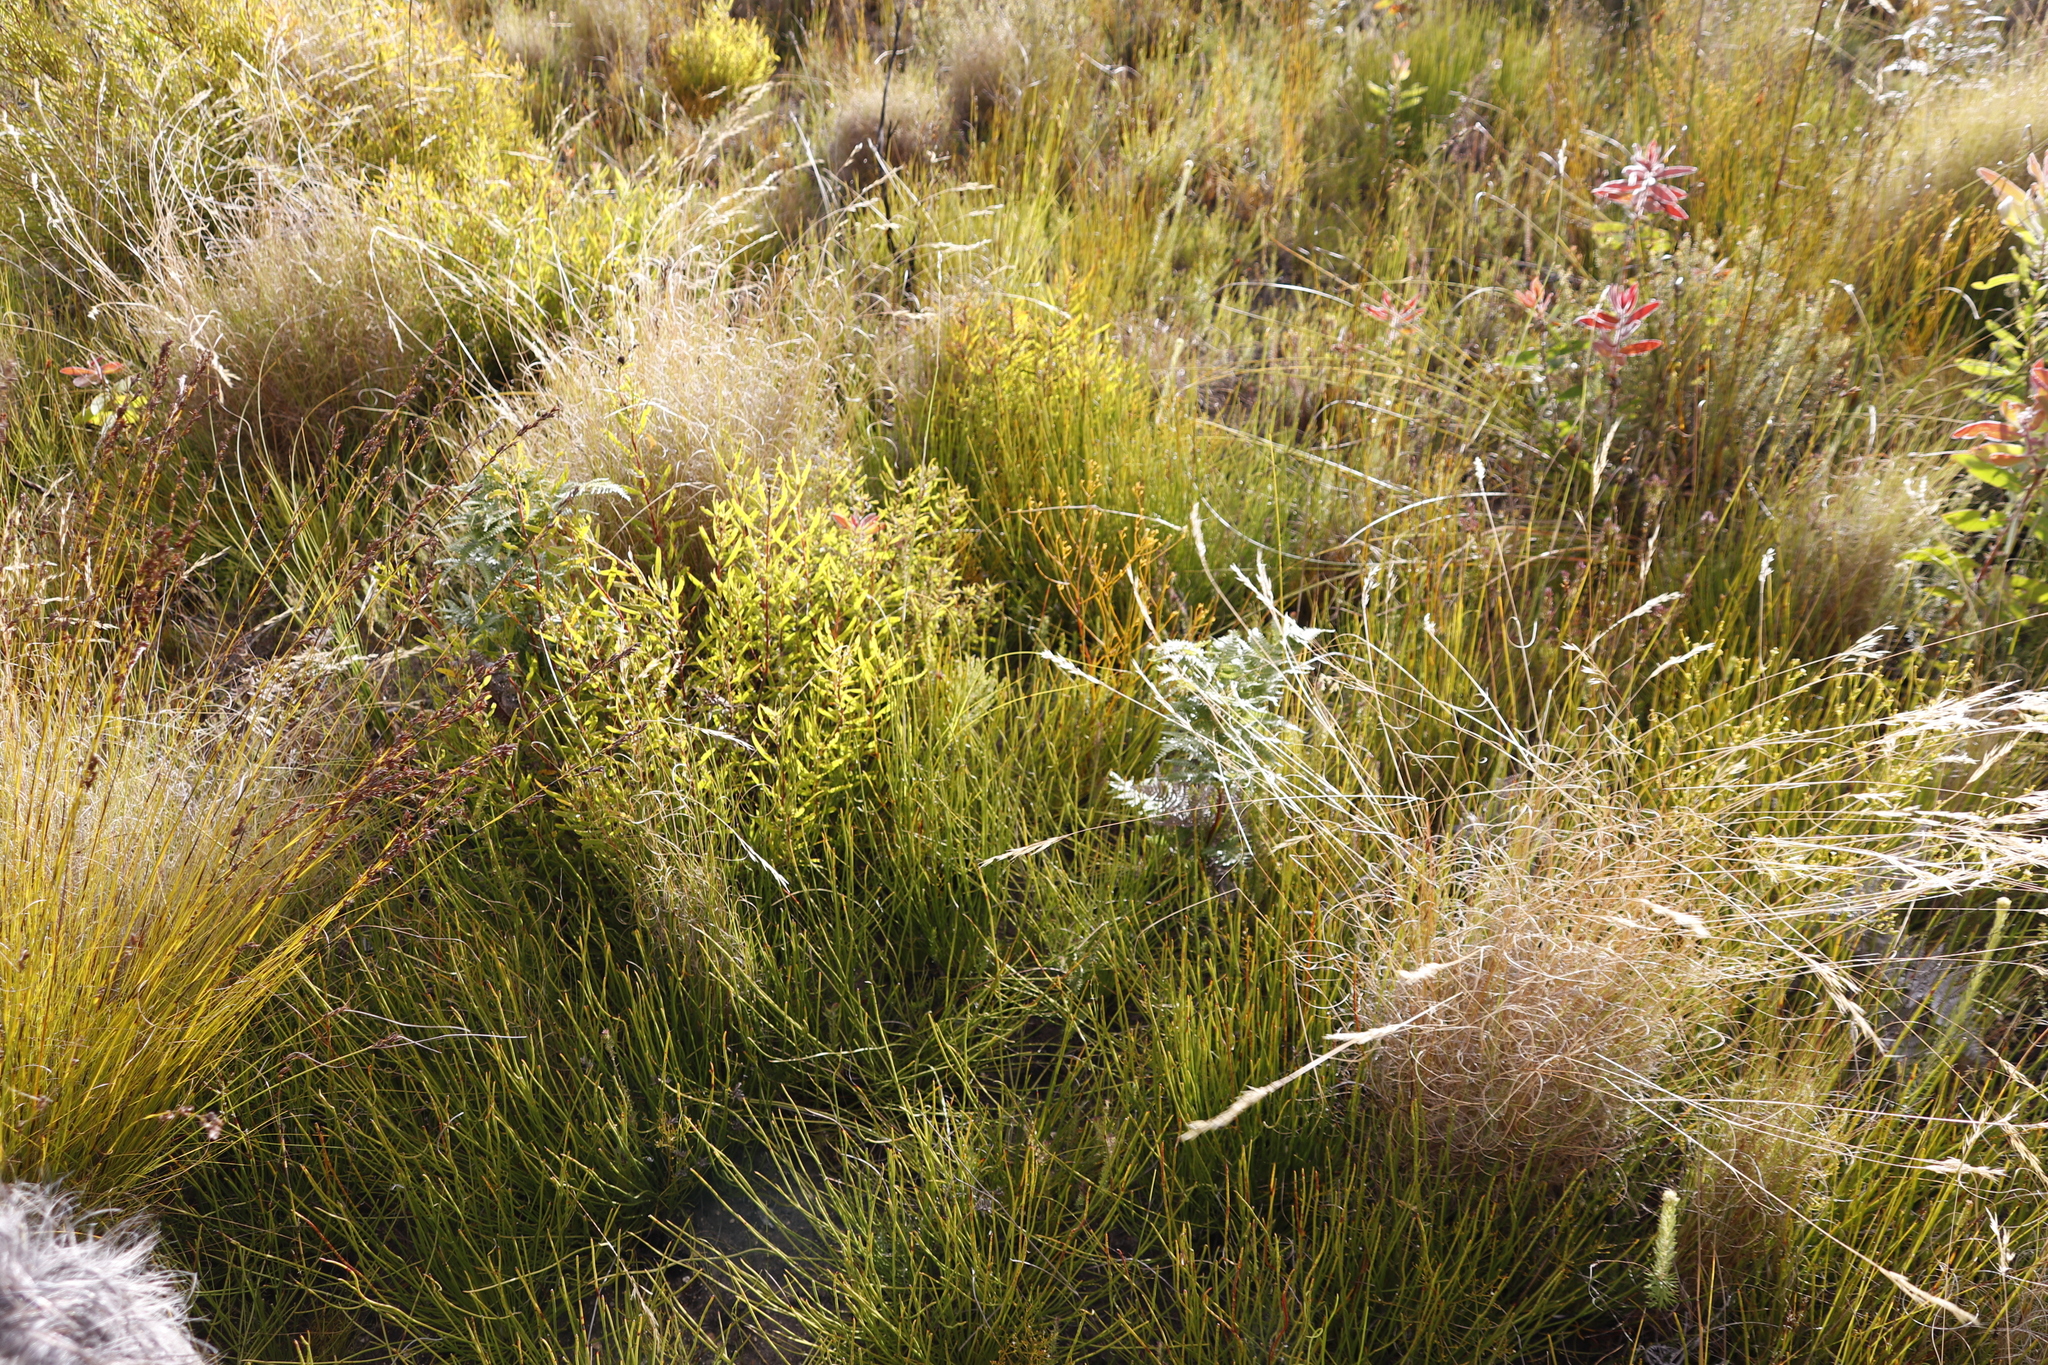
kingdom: Plantae
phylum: Tracheophyta
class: Magnoliopsida
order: Proteales
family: Proteaceae
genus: Leucadendron
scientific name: Leucadendron spissifolium
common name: Spear-leaf conebush
